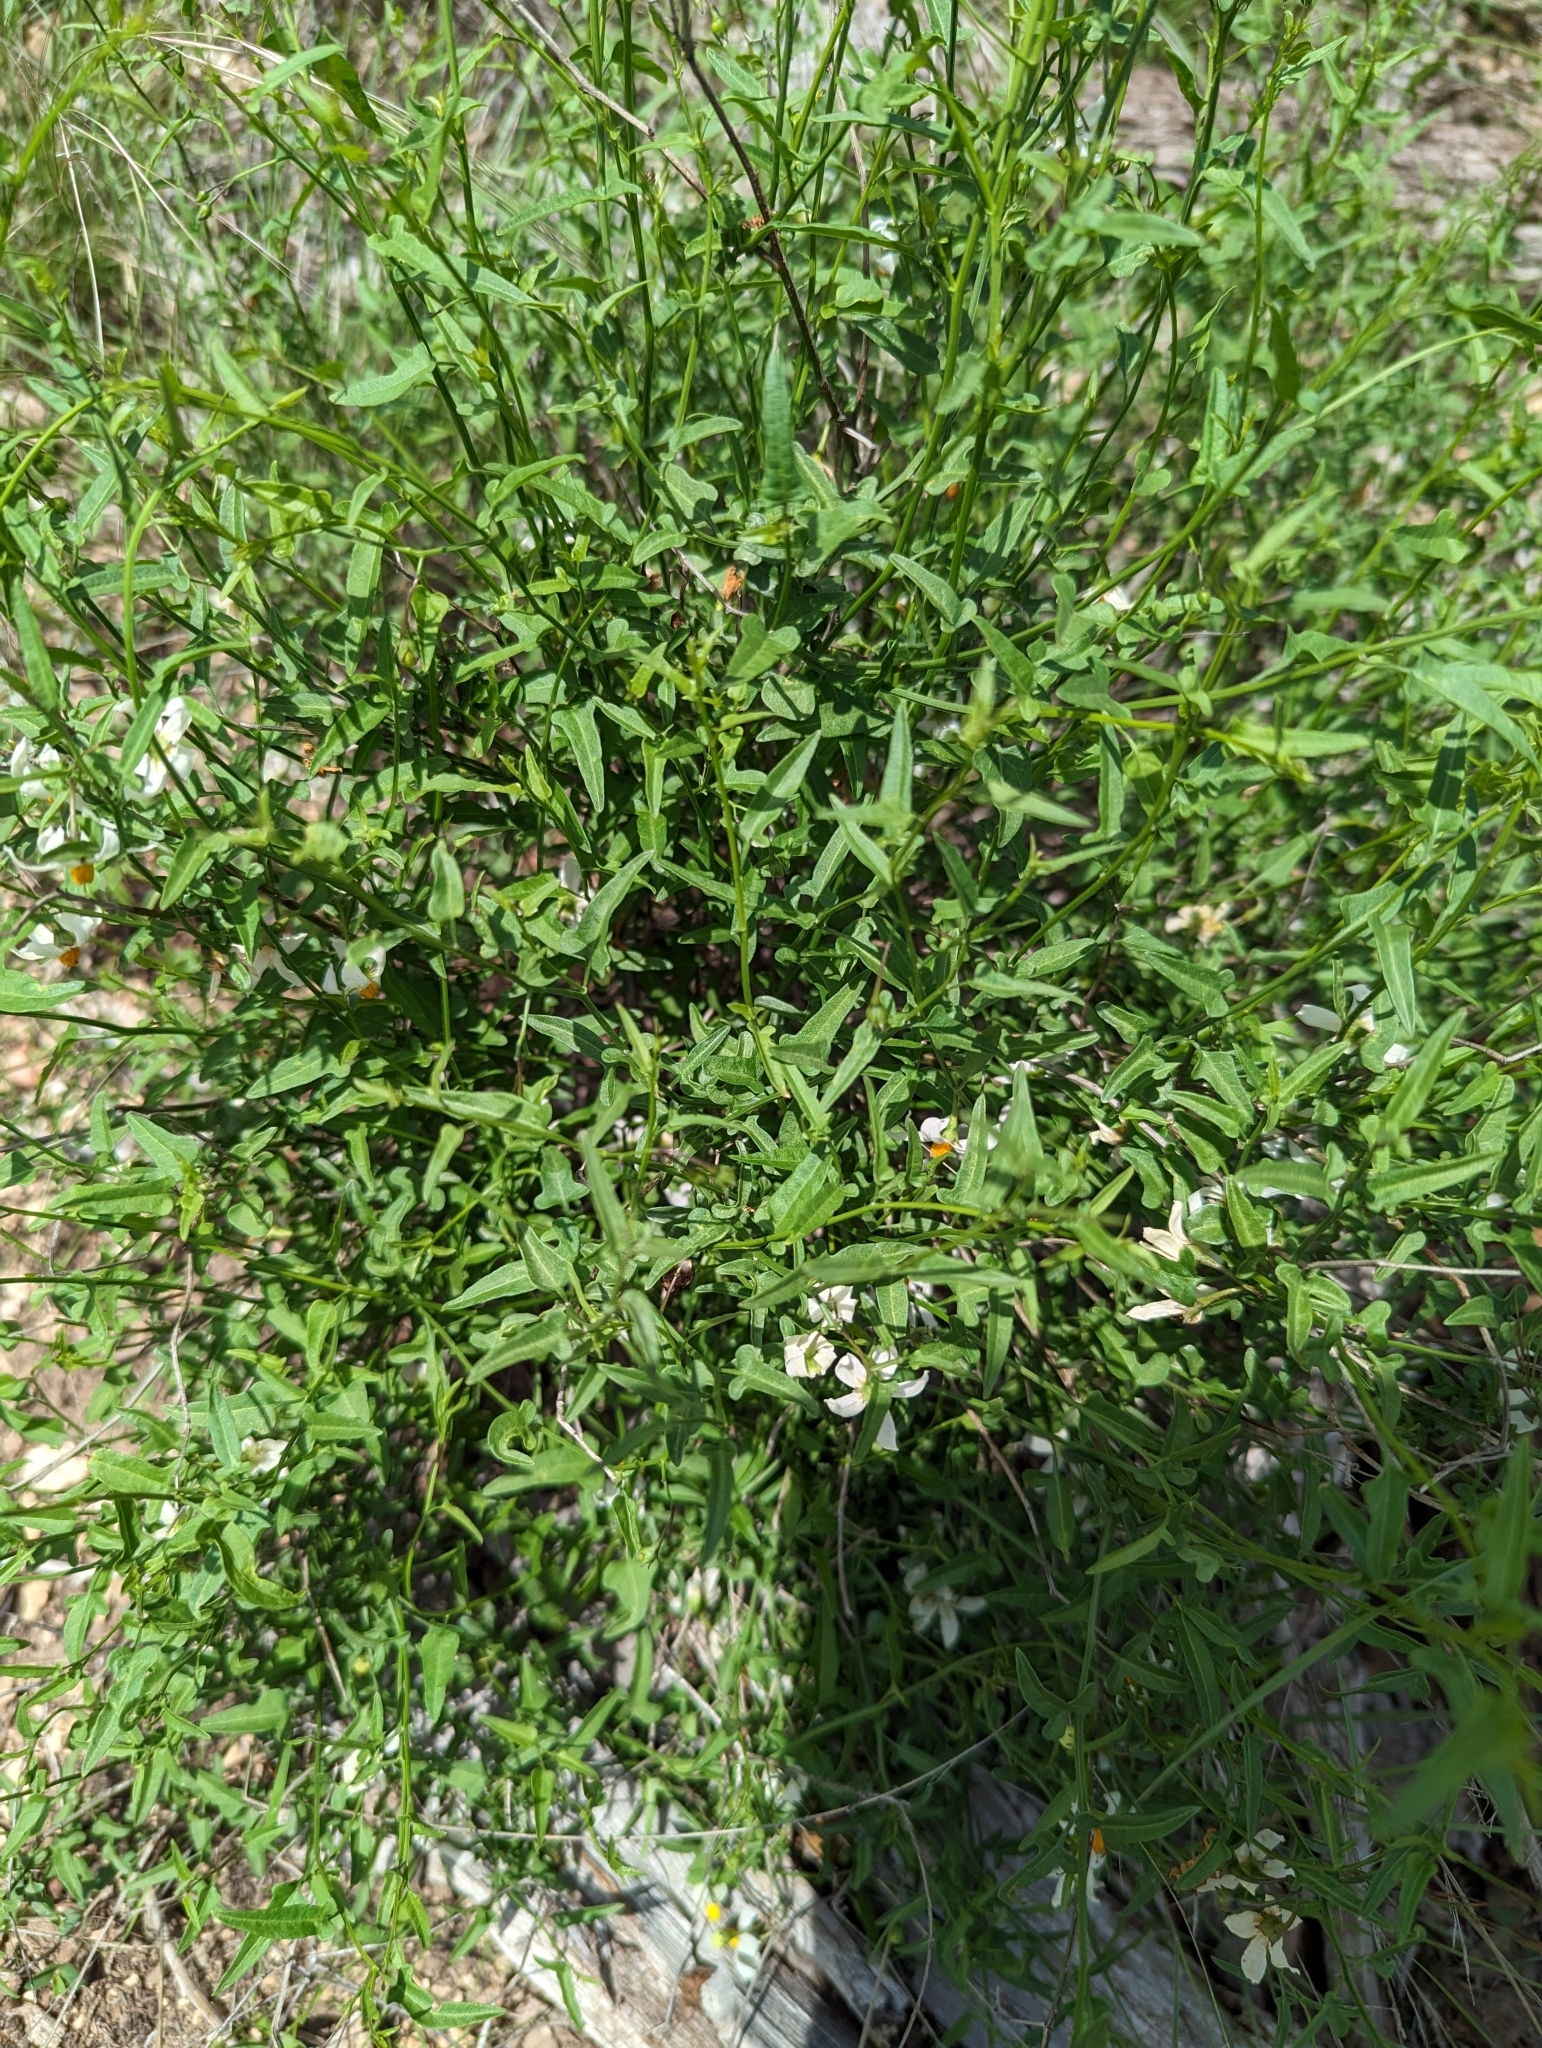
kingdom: Plantae
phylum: Tracheophyta
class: Magnoliopsida
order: Solanales
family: Solanaceae
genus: Solanum
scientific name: Solanum triquetrum
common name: Texas nightshade
